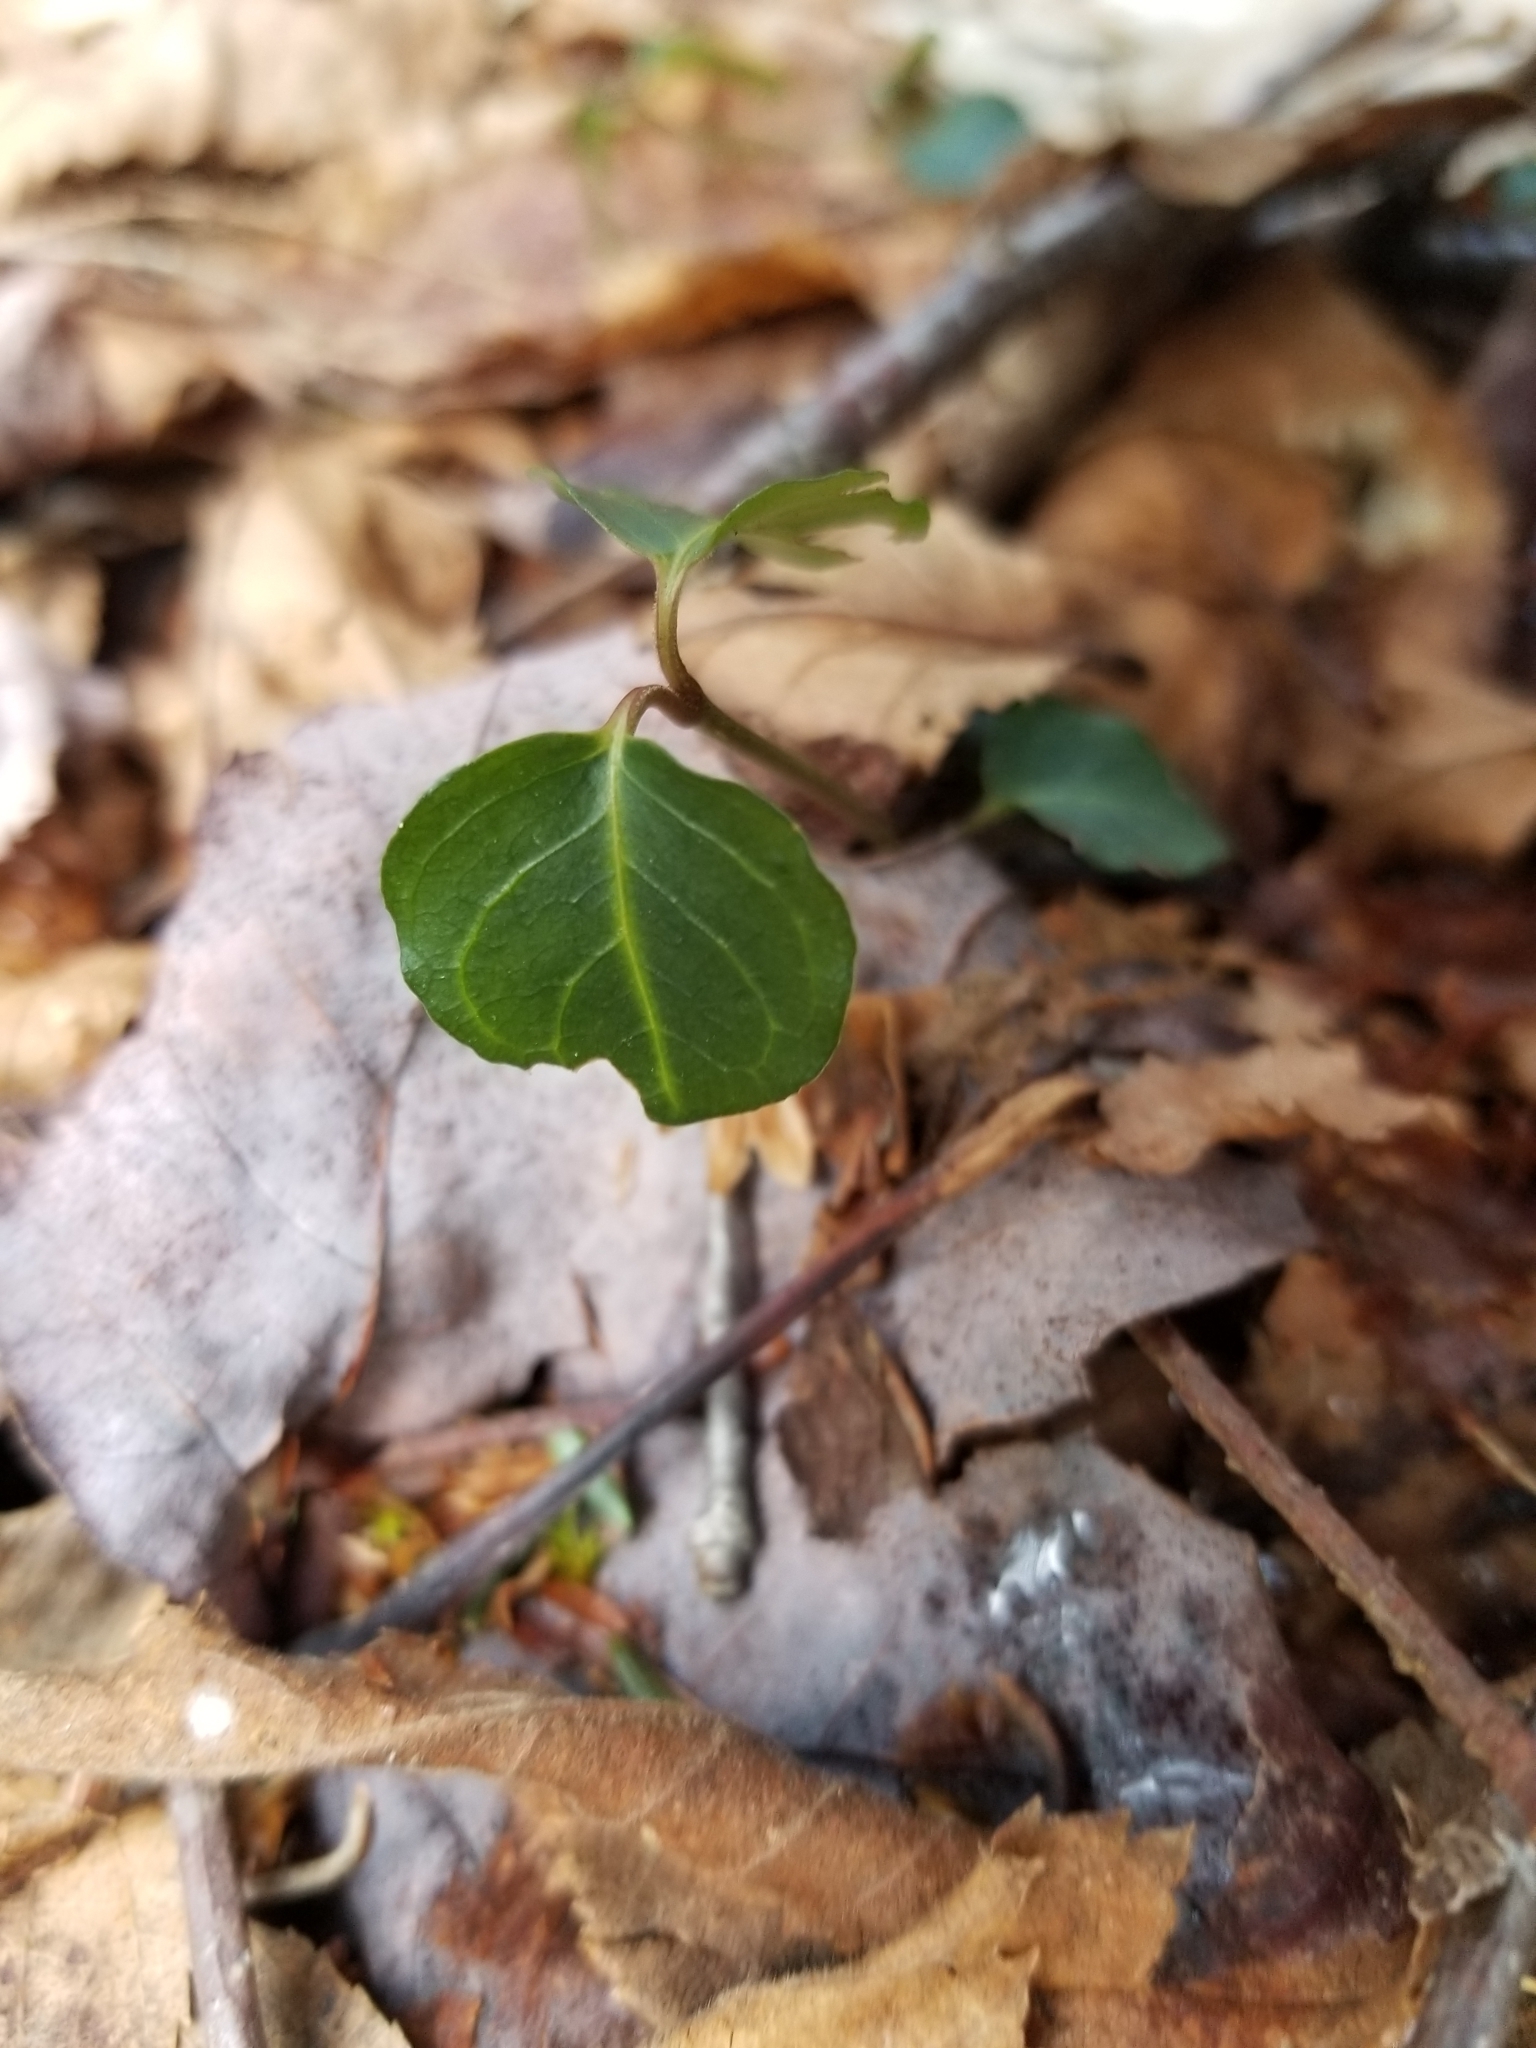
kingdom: Plantae
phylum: Tracheophyta
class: Magnoliopsida
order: Gentianales
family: Rubiaceae
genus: Mitchella
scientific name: Mitchella repens
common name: Partridge-berry
